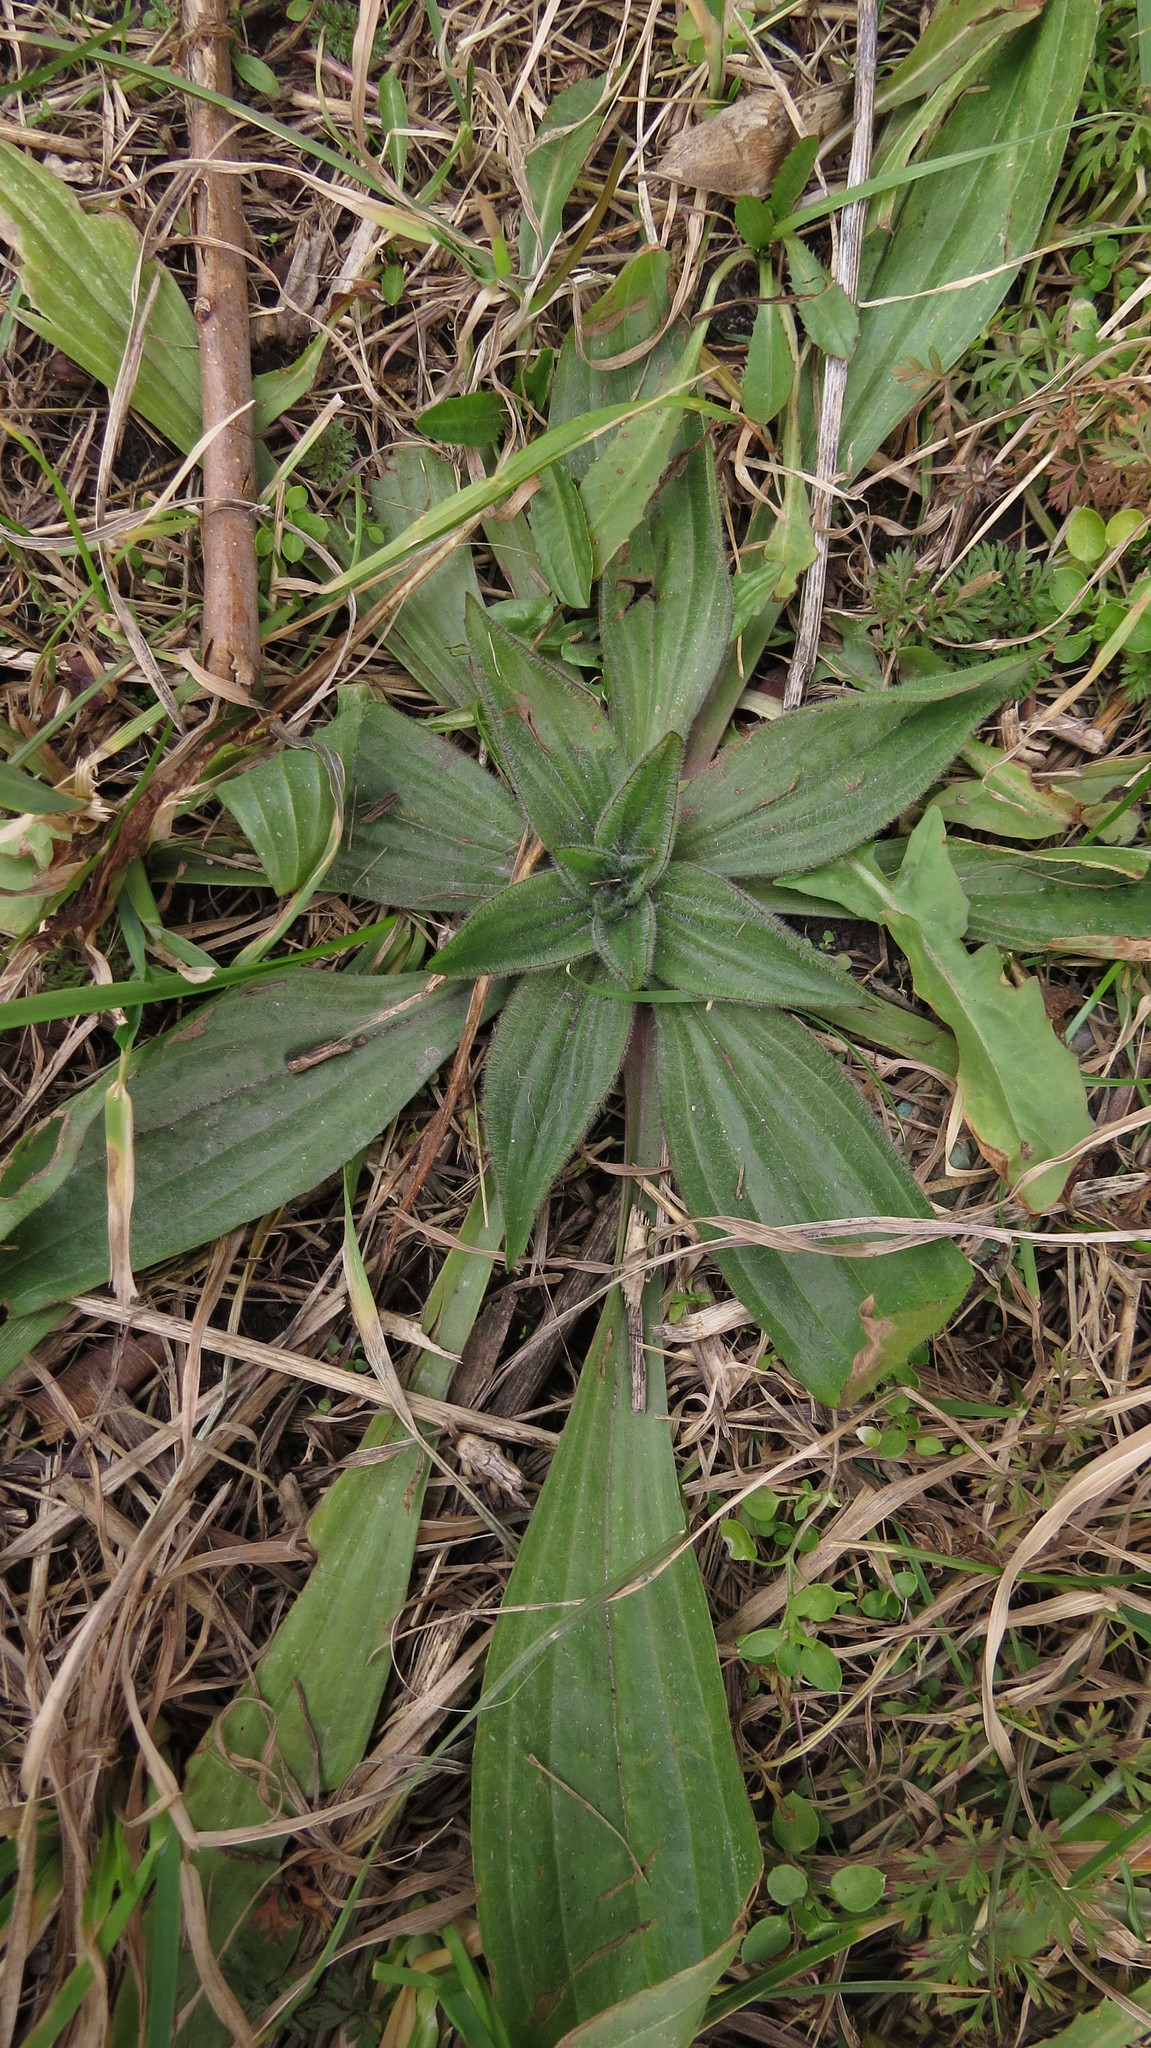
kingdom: Plantae
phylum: Tracheophyta
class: Magnoliopsida
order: Lamiales
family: Plantaginaceae
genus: Plantago
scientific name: Plantago lanceolata
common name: Ribwort plantain
